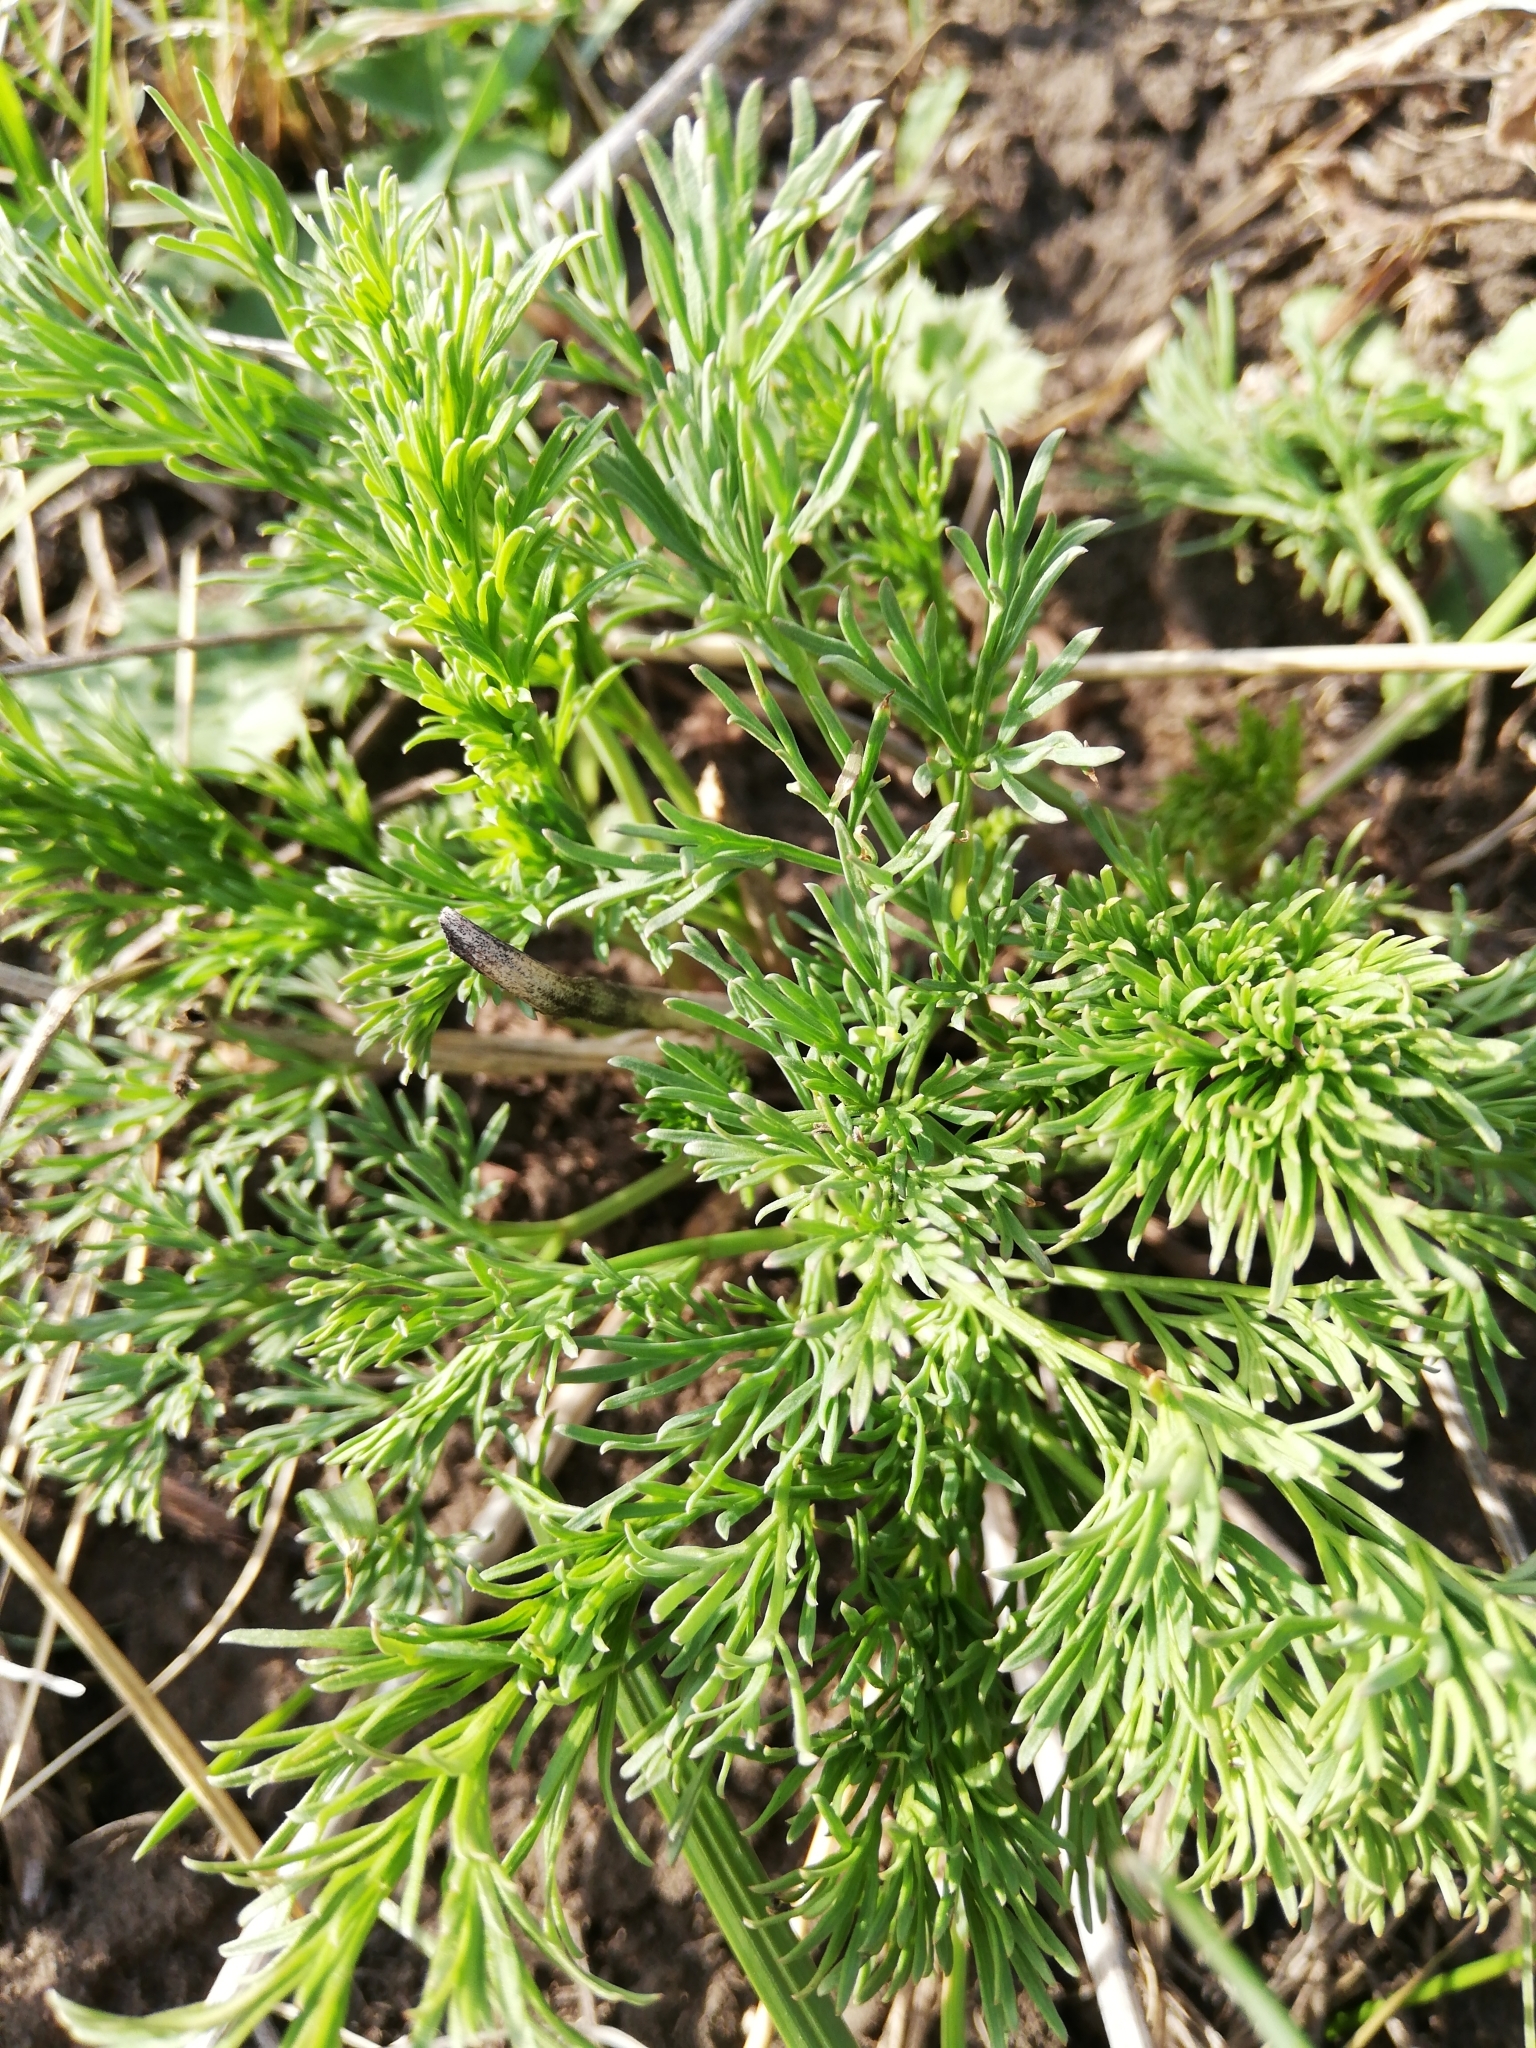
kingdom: Plantae
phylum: Tracheophyta
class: Magnoliopsida
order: Asterales
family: Asteraceae
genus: Tripleurospermum
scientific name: Tripleurospermum inodorum
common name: Scentless mayweed
